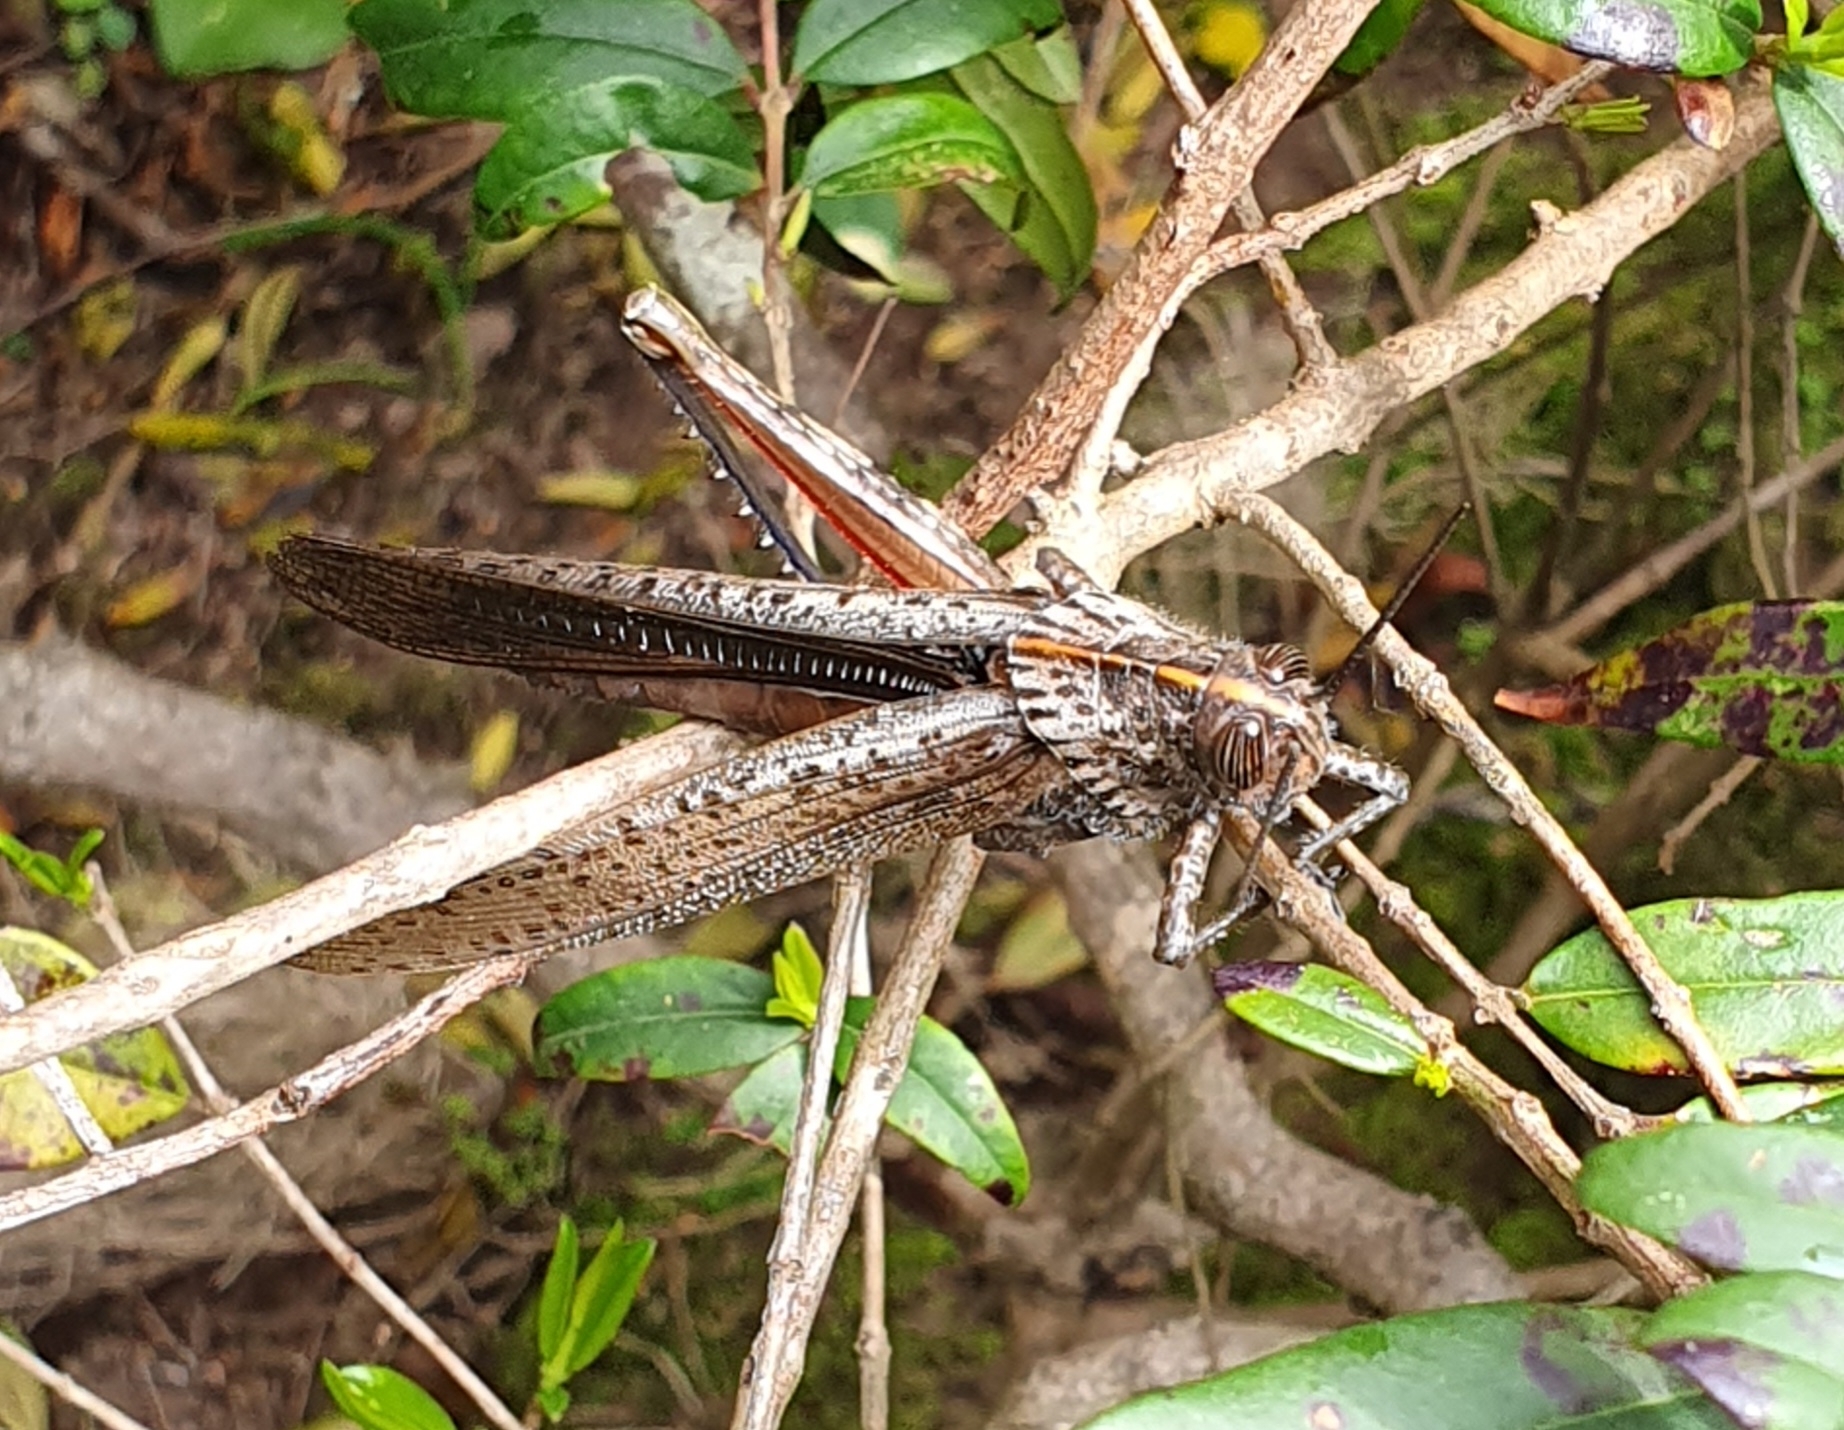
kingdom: Animalia
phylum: Arthropoda
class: Insecta
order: Orthoptera
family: Acrididae
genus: Anacridium
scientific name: Anacridium aegyptium
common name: Egyptian grasshopper
